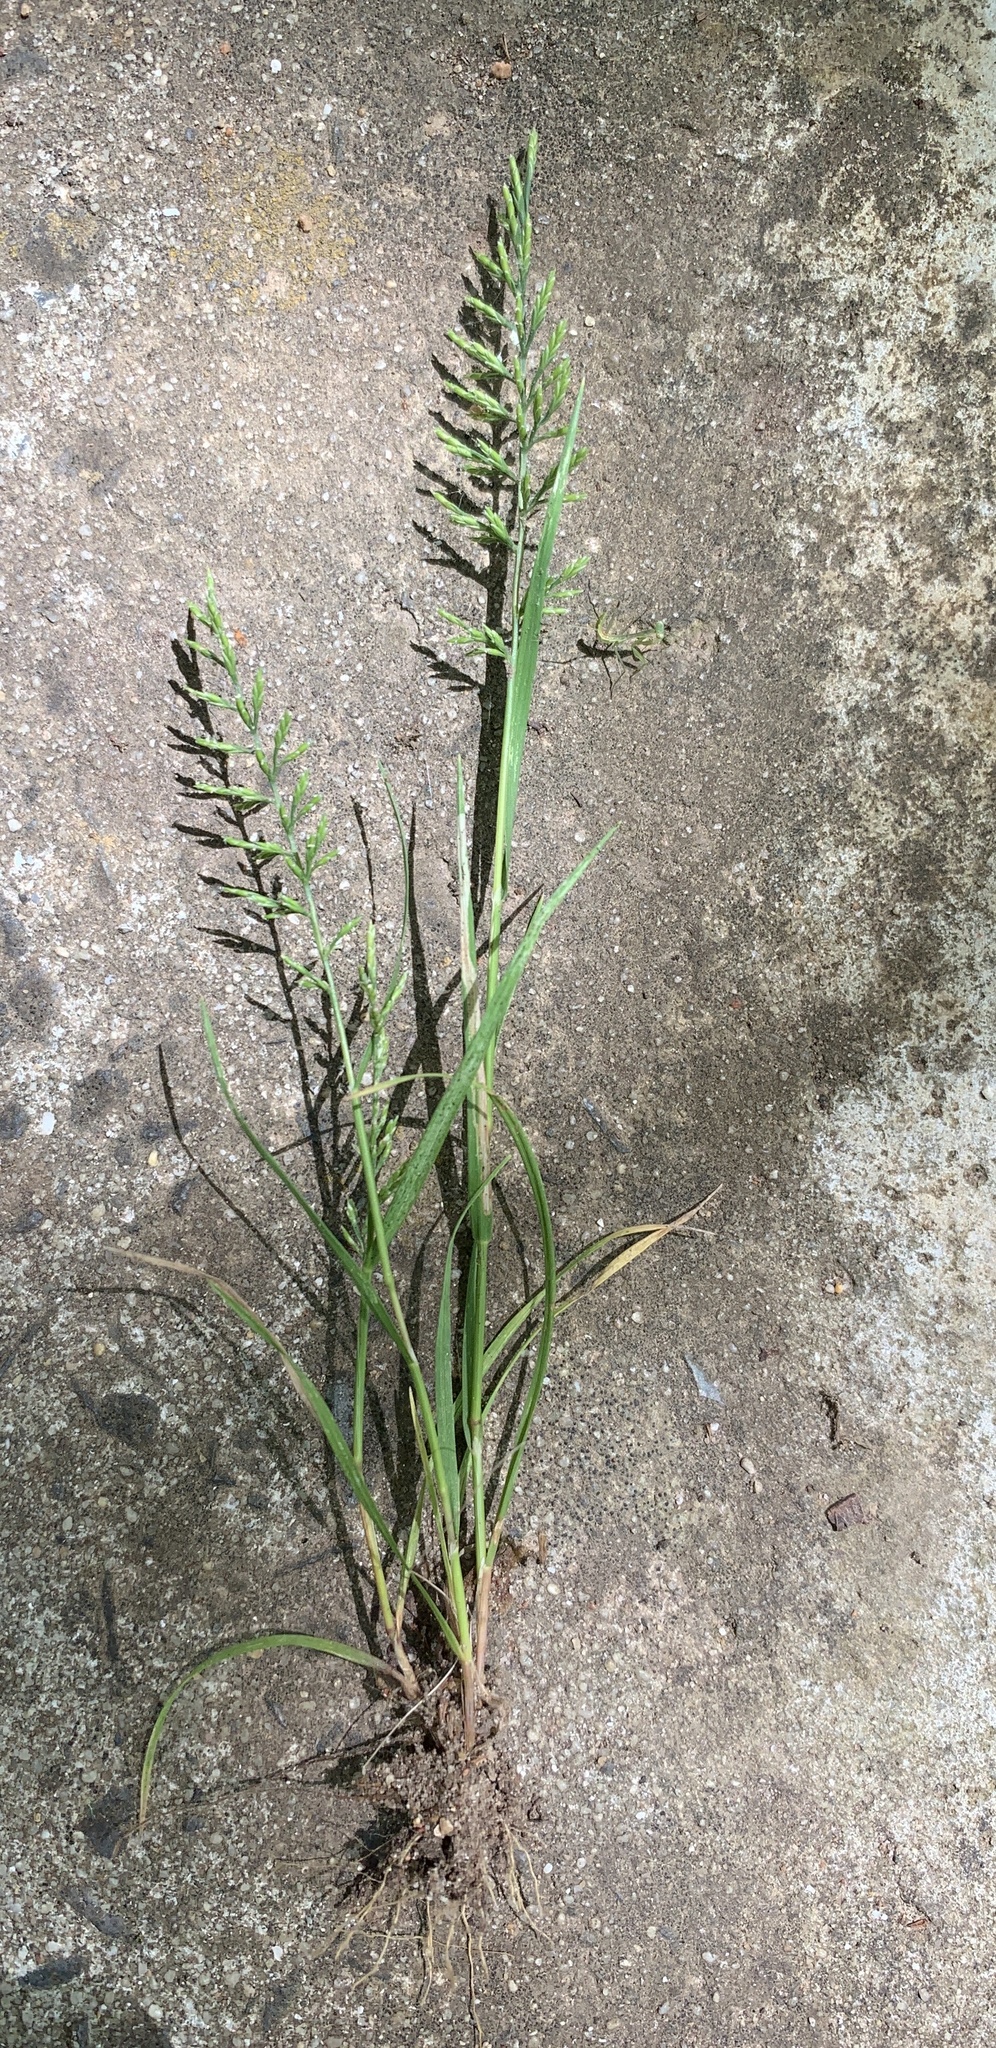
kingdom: Plantae
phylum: Tracheophyta
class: Liliopsida
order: Poales
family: Poaceae
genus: Catapodium
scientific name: Catapodium rigidum
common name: Fern-grass
